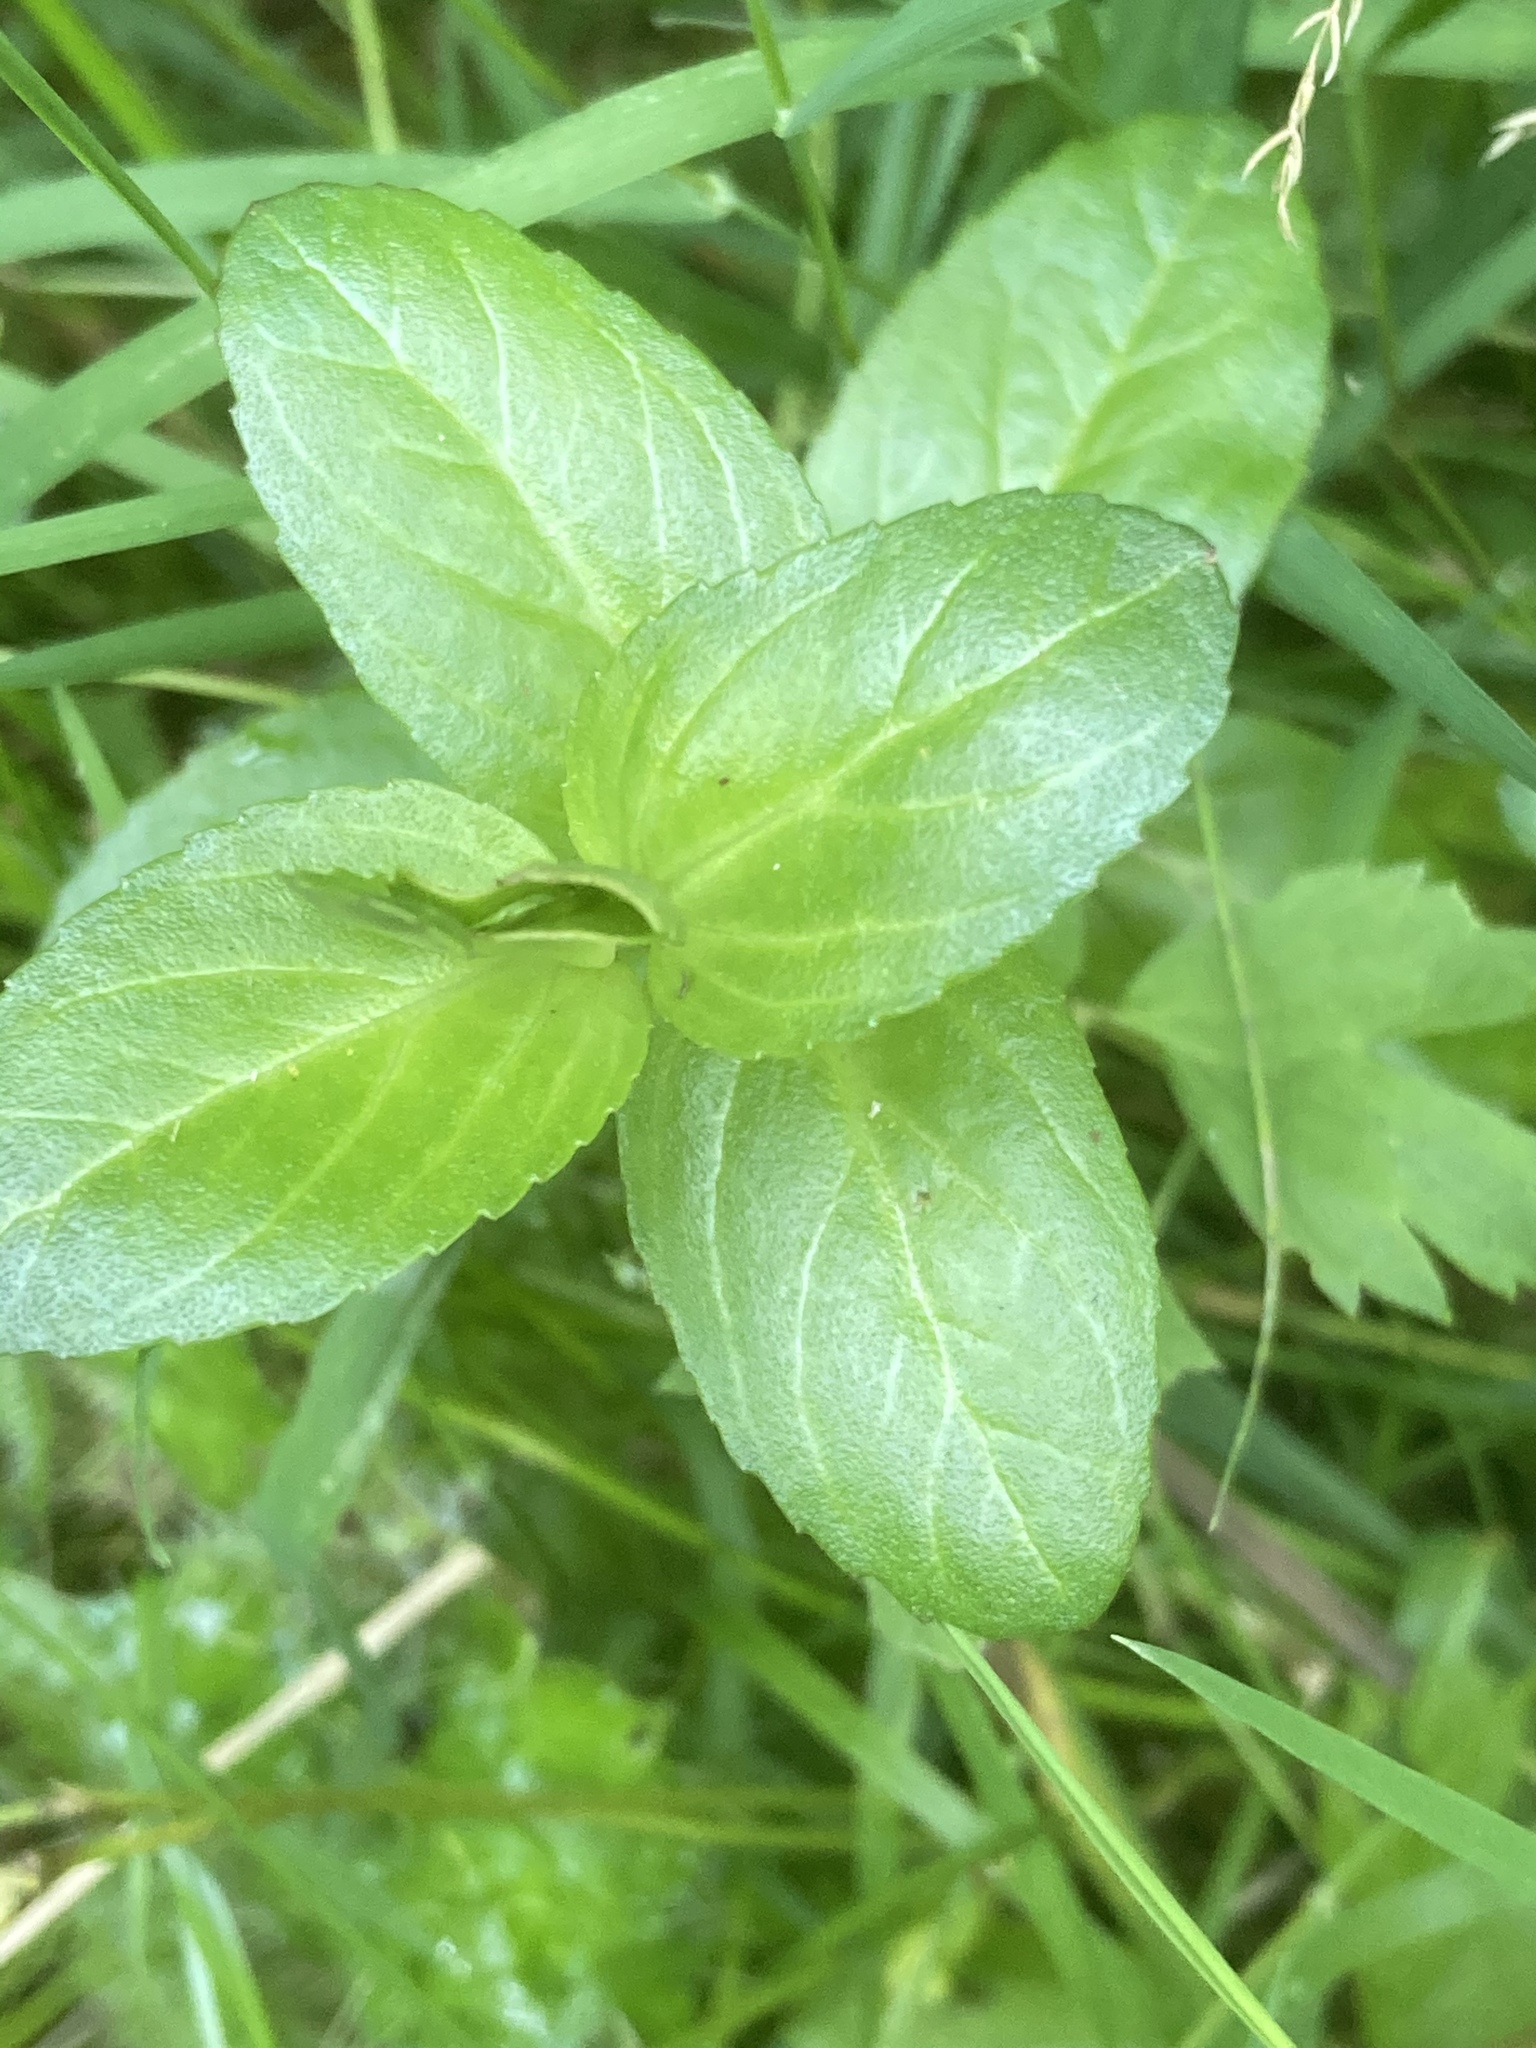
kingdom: Plantae
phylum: Tracheophyta
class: Magnoliopsida
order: Lamiales
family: Plantaginaceae
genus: Veronica
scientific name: Veronica beccabunga
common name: Brooklime
